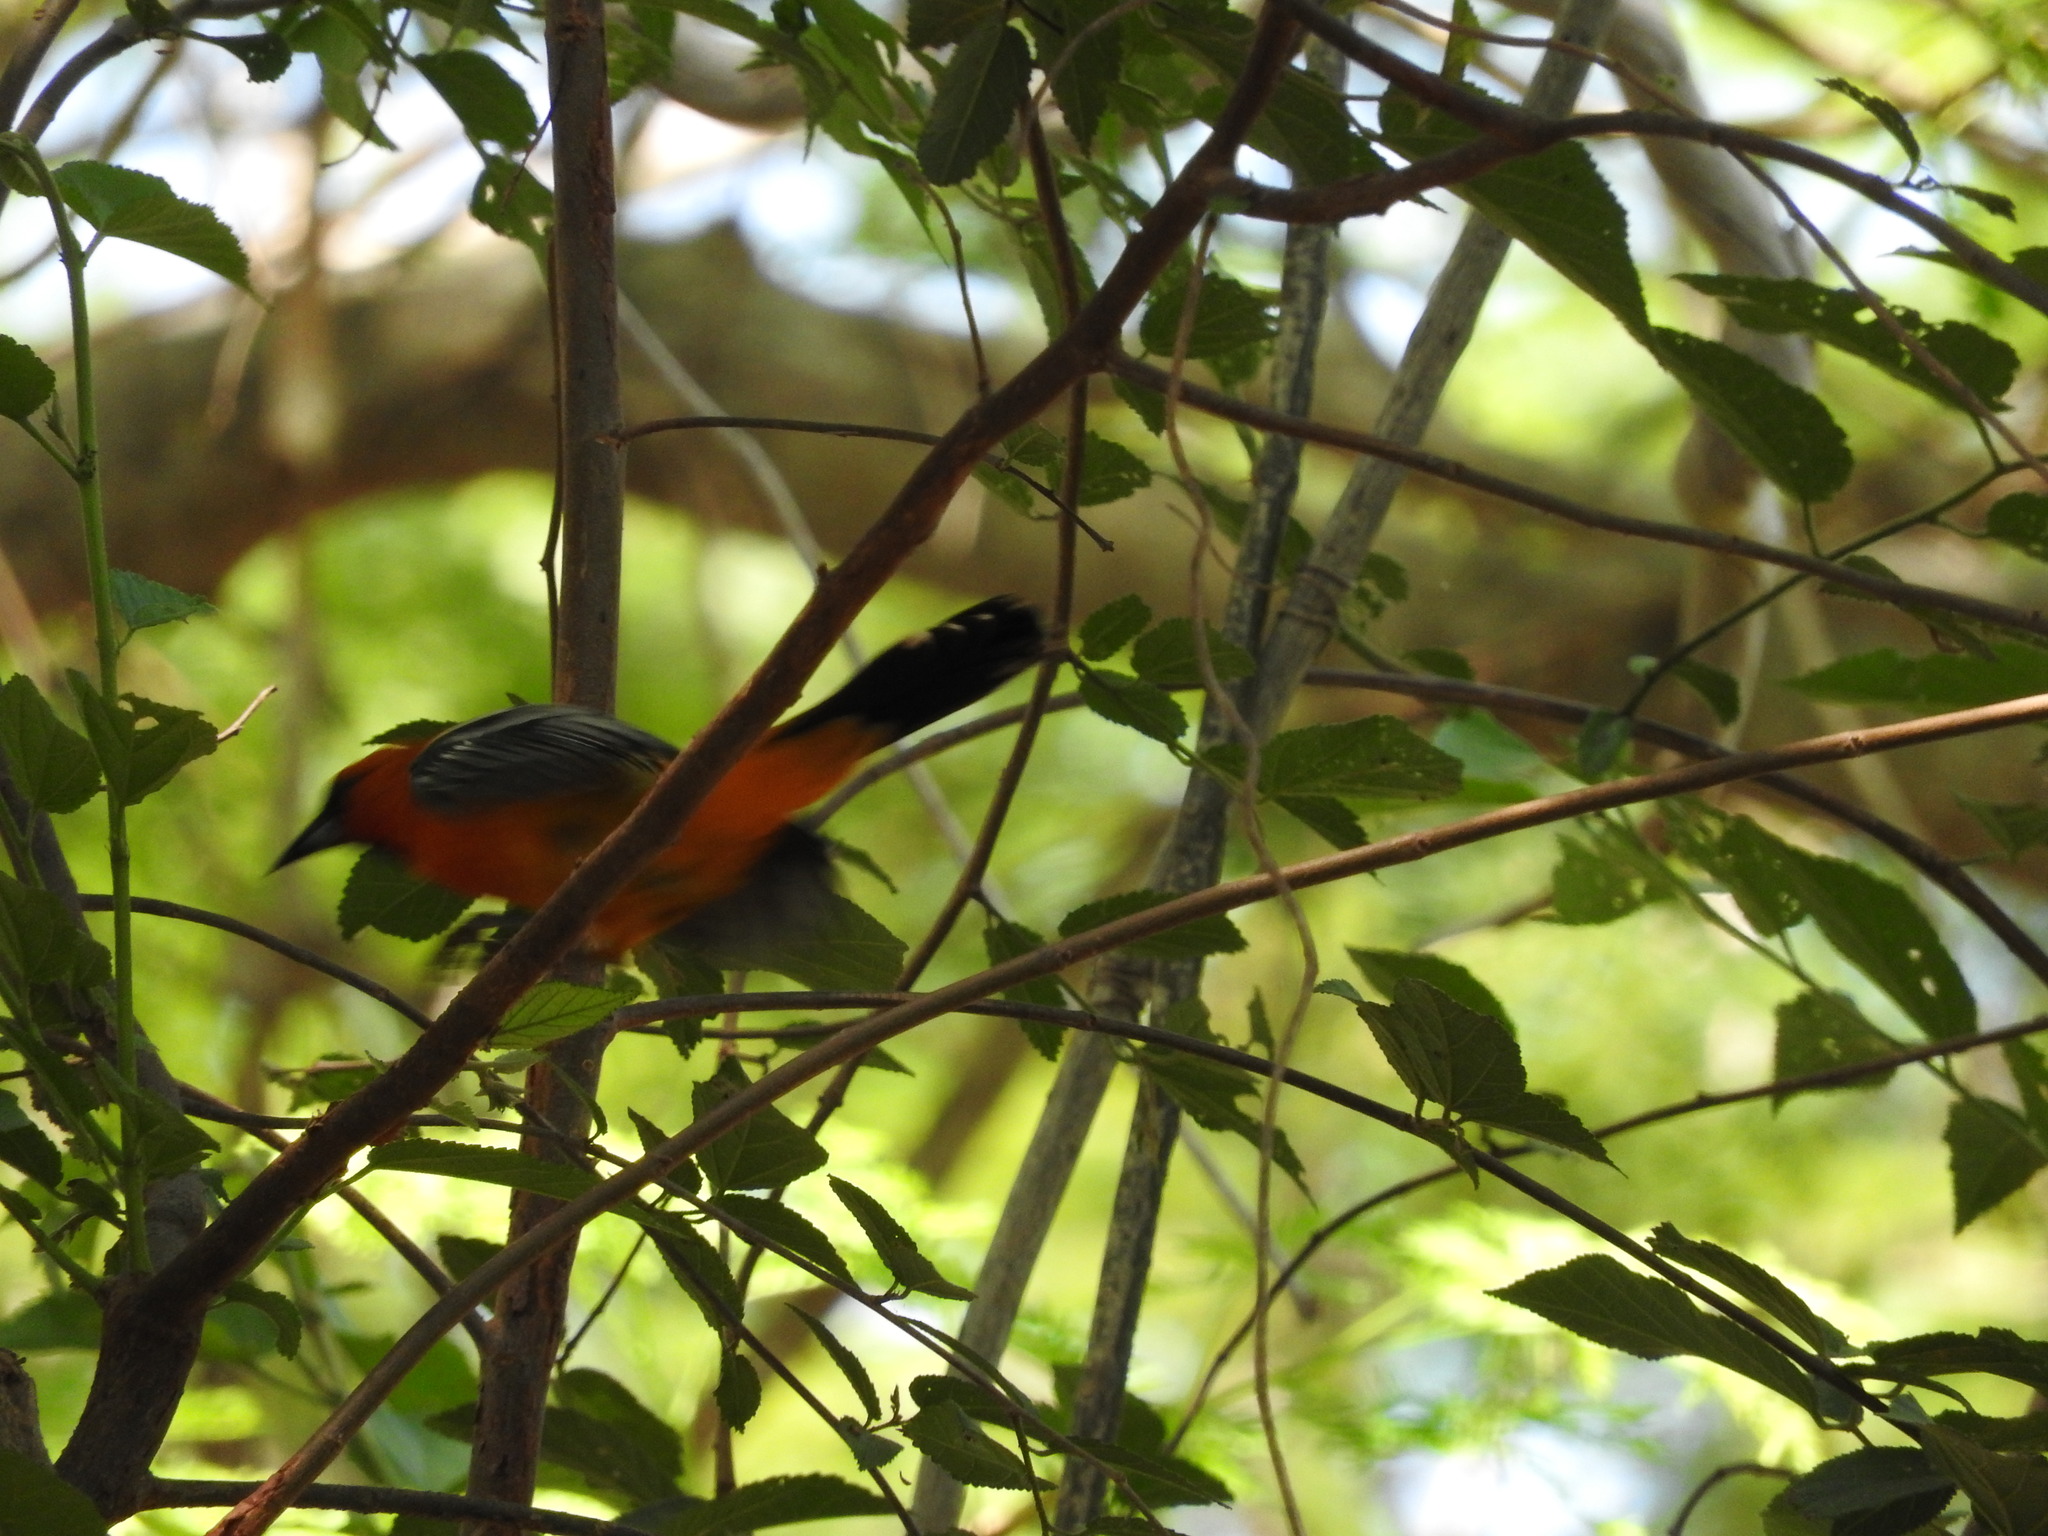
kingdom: Animalia
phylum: Chordata
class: Aves
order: Passeriformes
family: Icteridae
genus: Icterus
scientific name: Icterus pustulatus
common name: Streak-backed oriole
